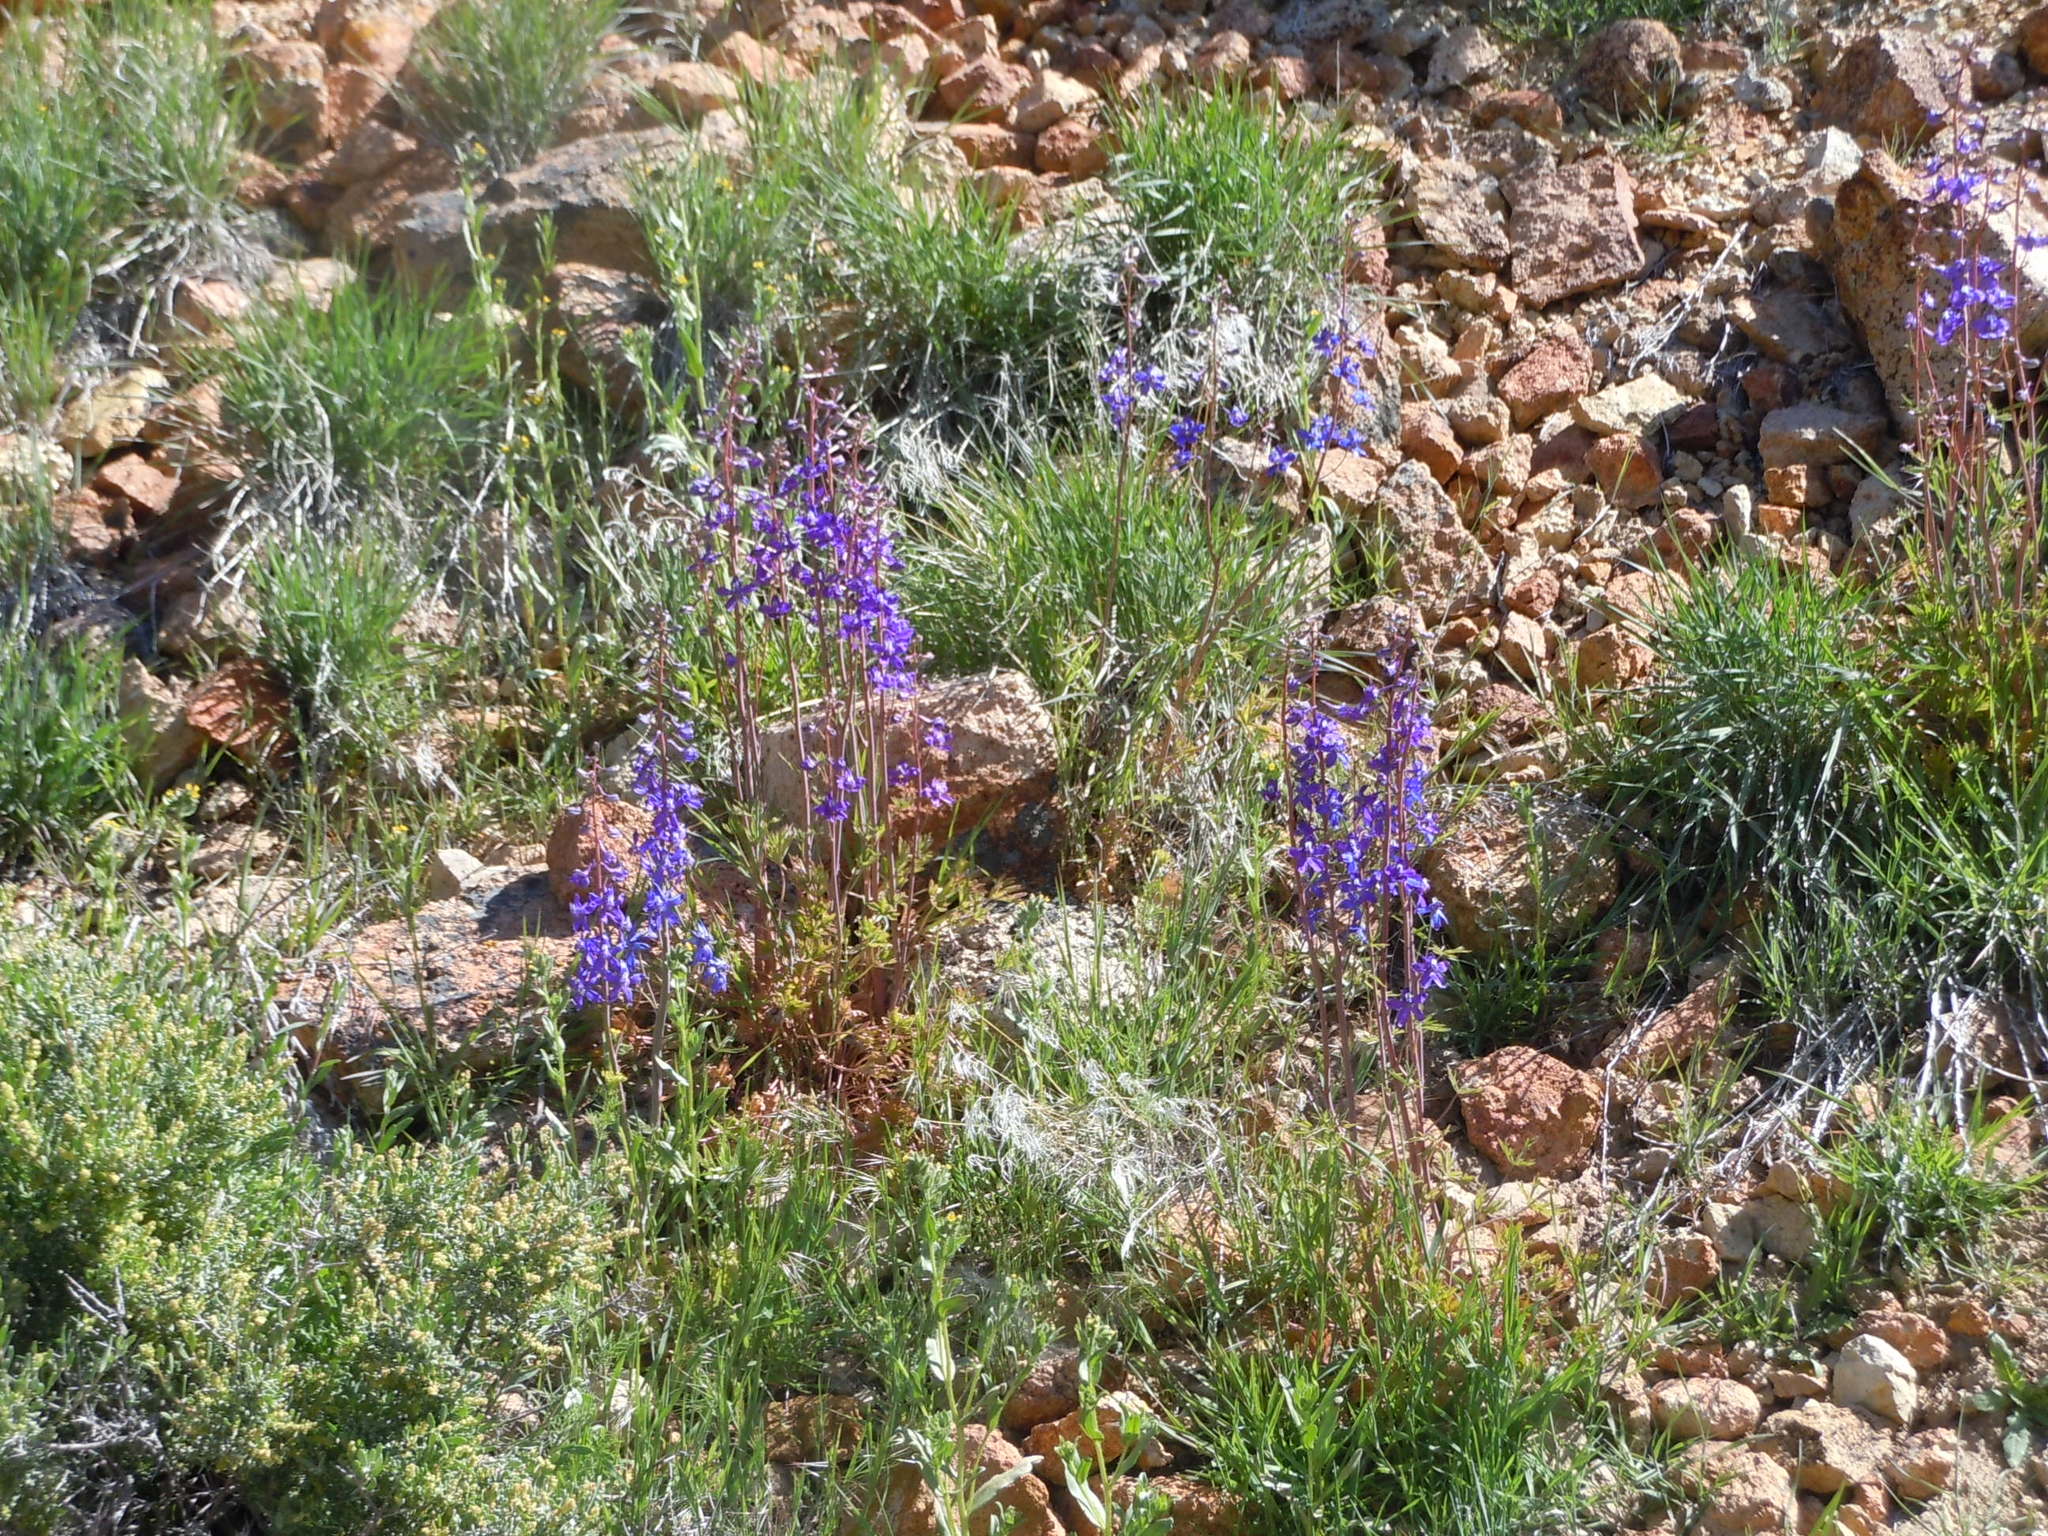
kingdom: Plantae
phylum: Tracheophyta
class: Magnoliopsida
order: Ranunculales
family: Ranunculaceae
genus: Delphinium
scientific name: Delphinium andersonii
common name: Anderson's larkspur
